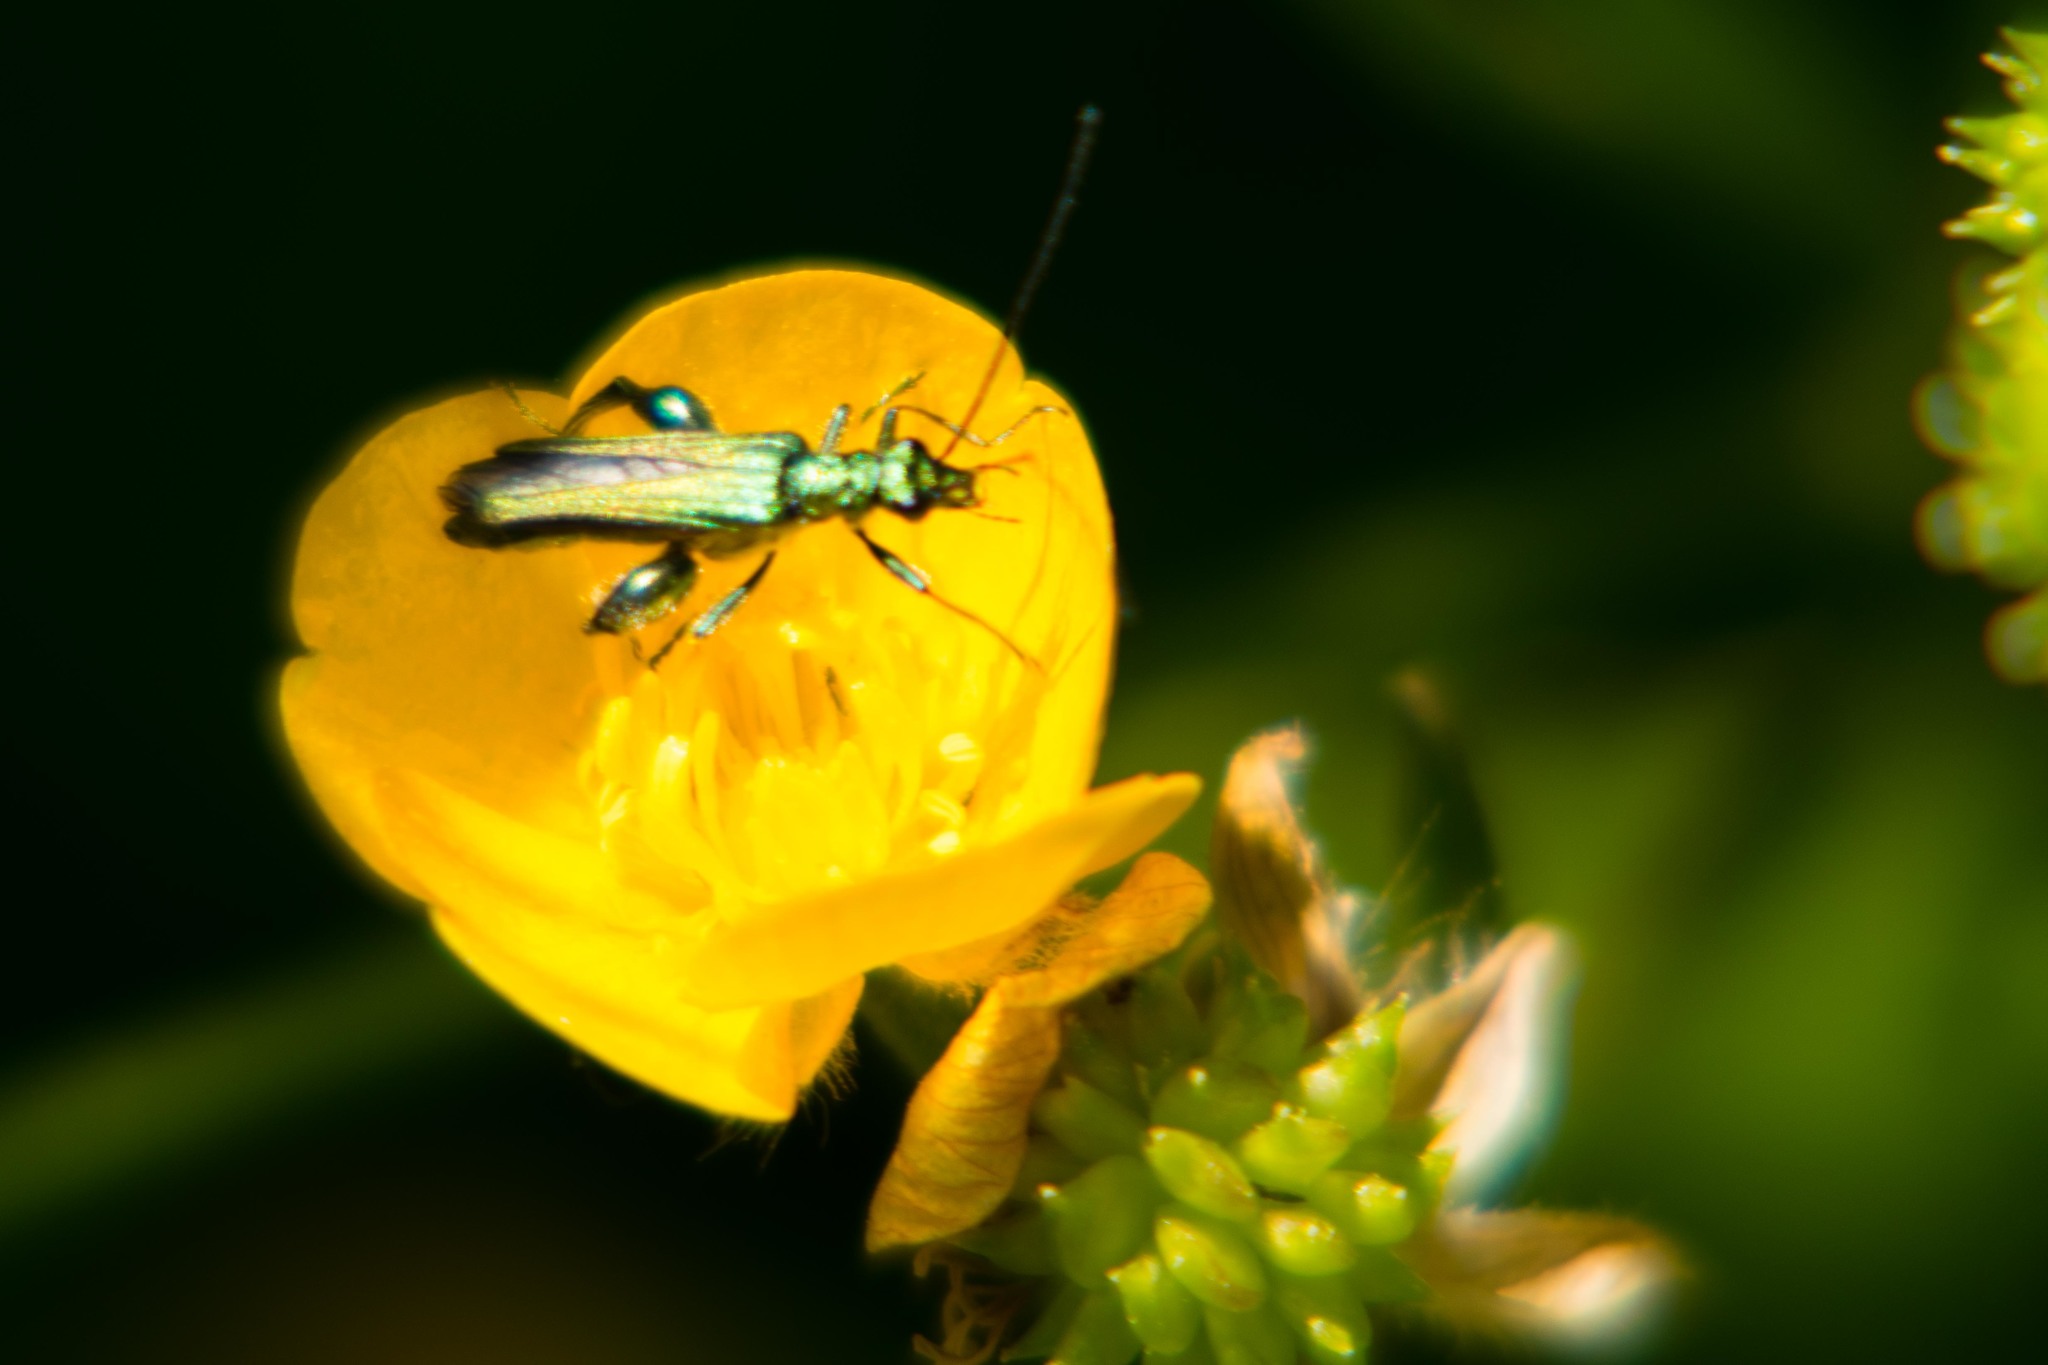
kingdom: Animalia
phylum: Arthropoda
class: Insecta
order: Coleoptera
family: Oedemeridae
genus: Oedemera
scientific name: Oedemera nobilis
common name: Swollen-thighed beetle
